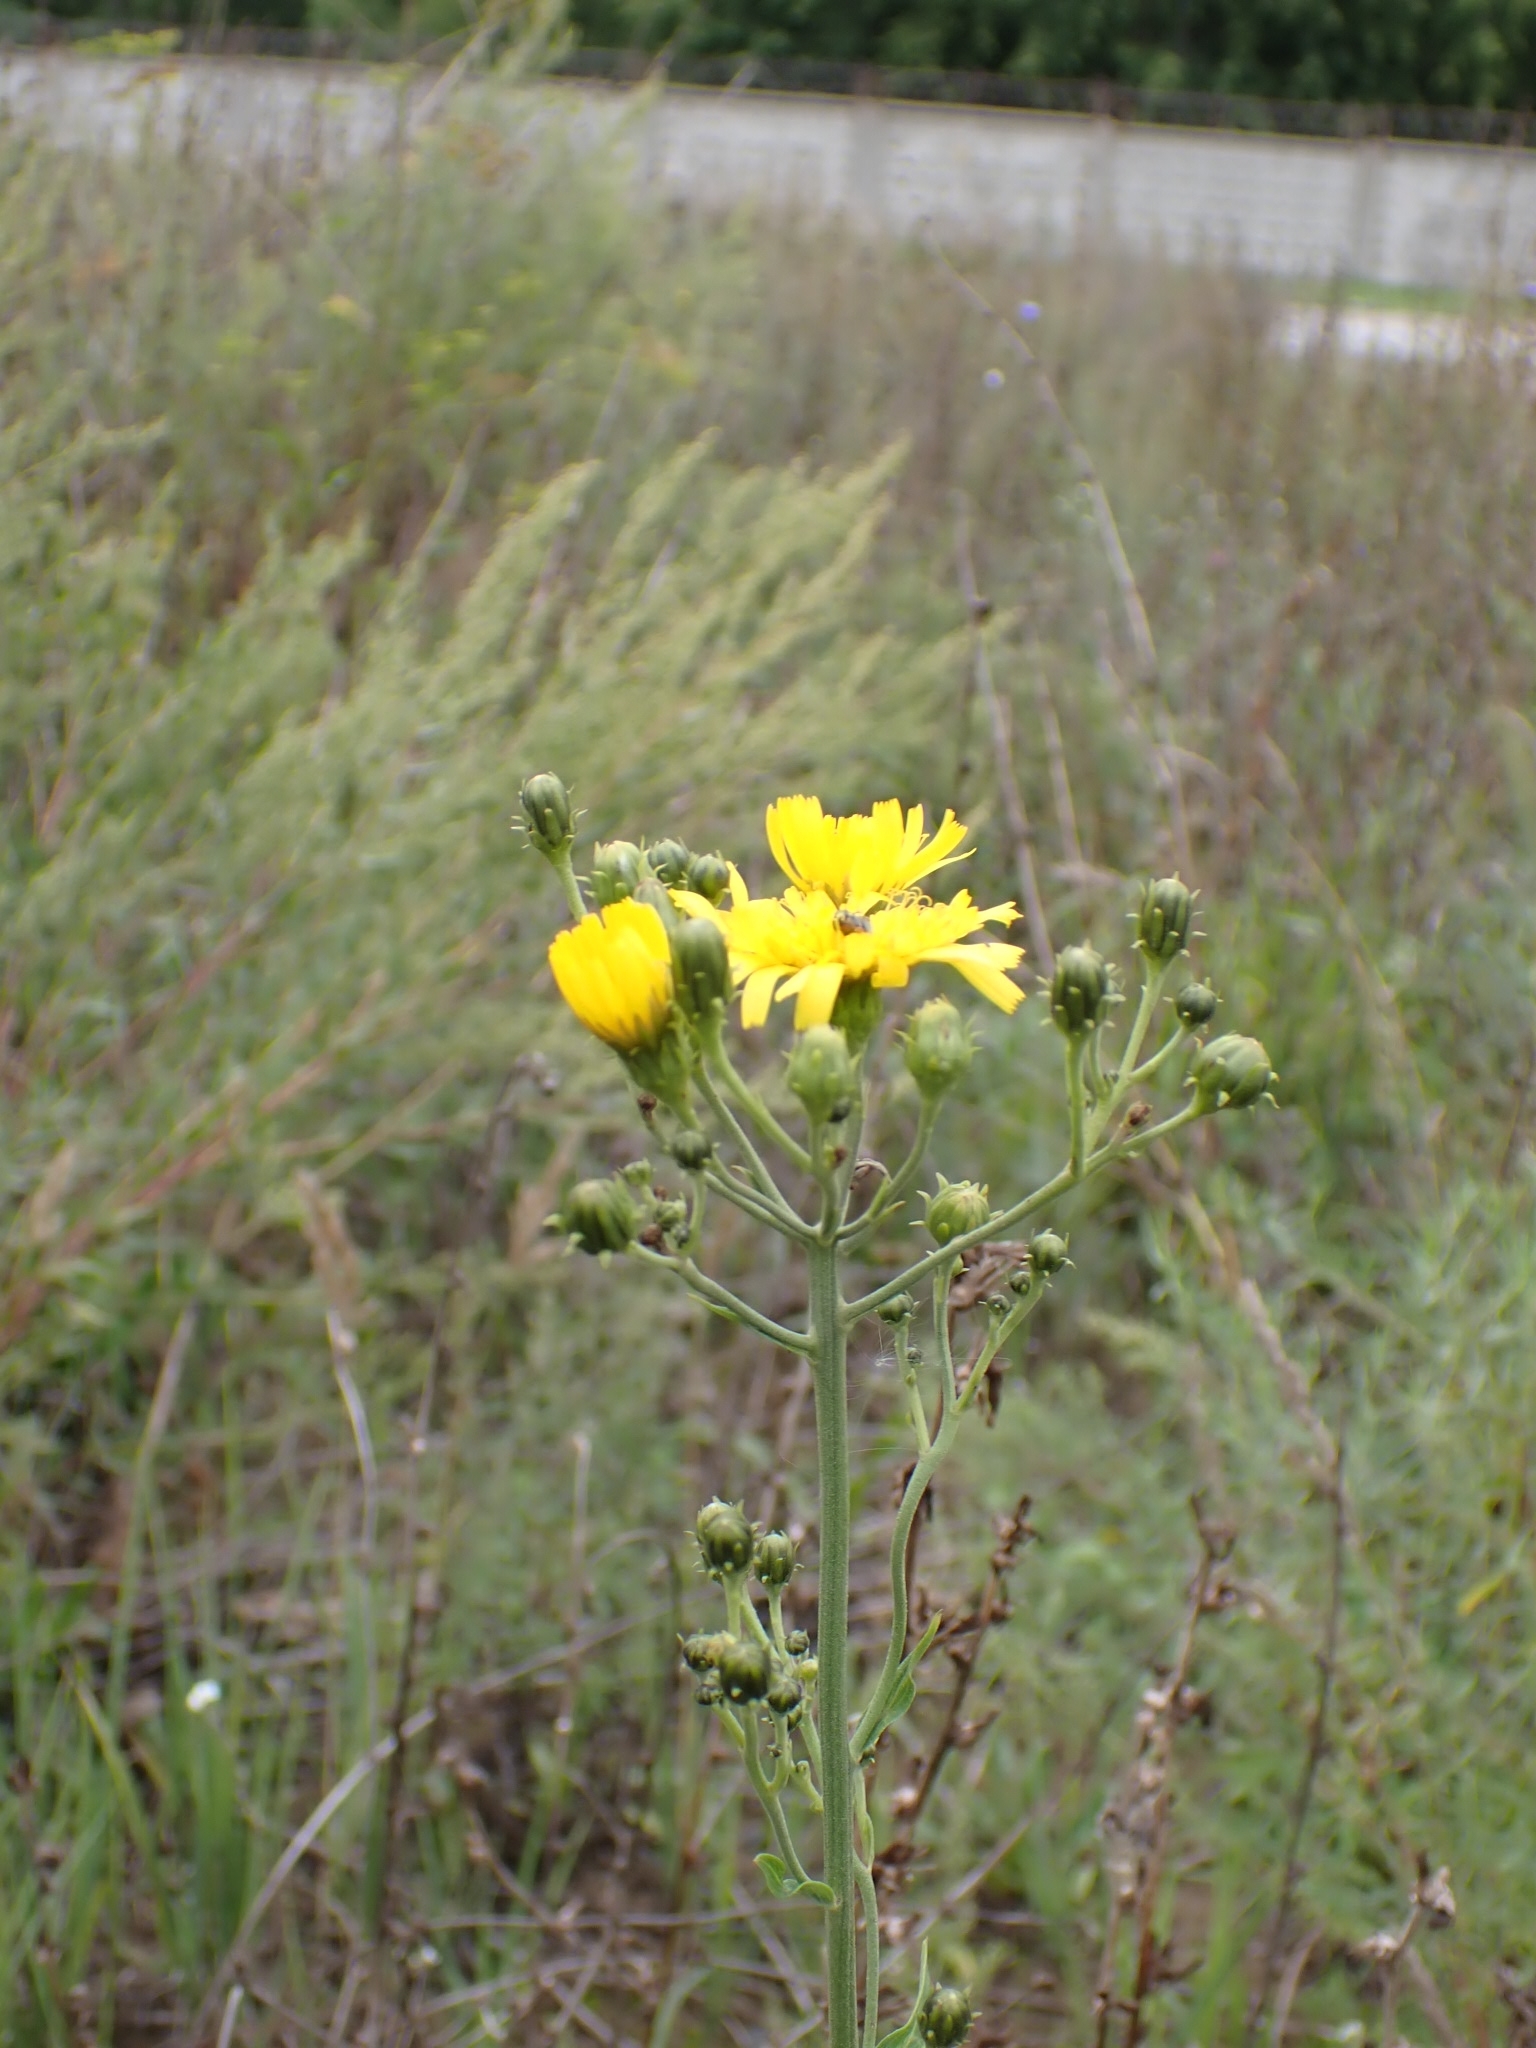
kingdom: Plantae
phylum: Tracheophyta
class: Magnoliopsida
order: Asterales
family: Asteraceae
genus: Hieracium
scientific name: Hieracium umbellatum
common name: Northern hawkweed
